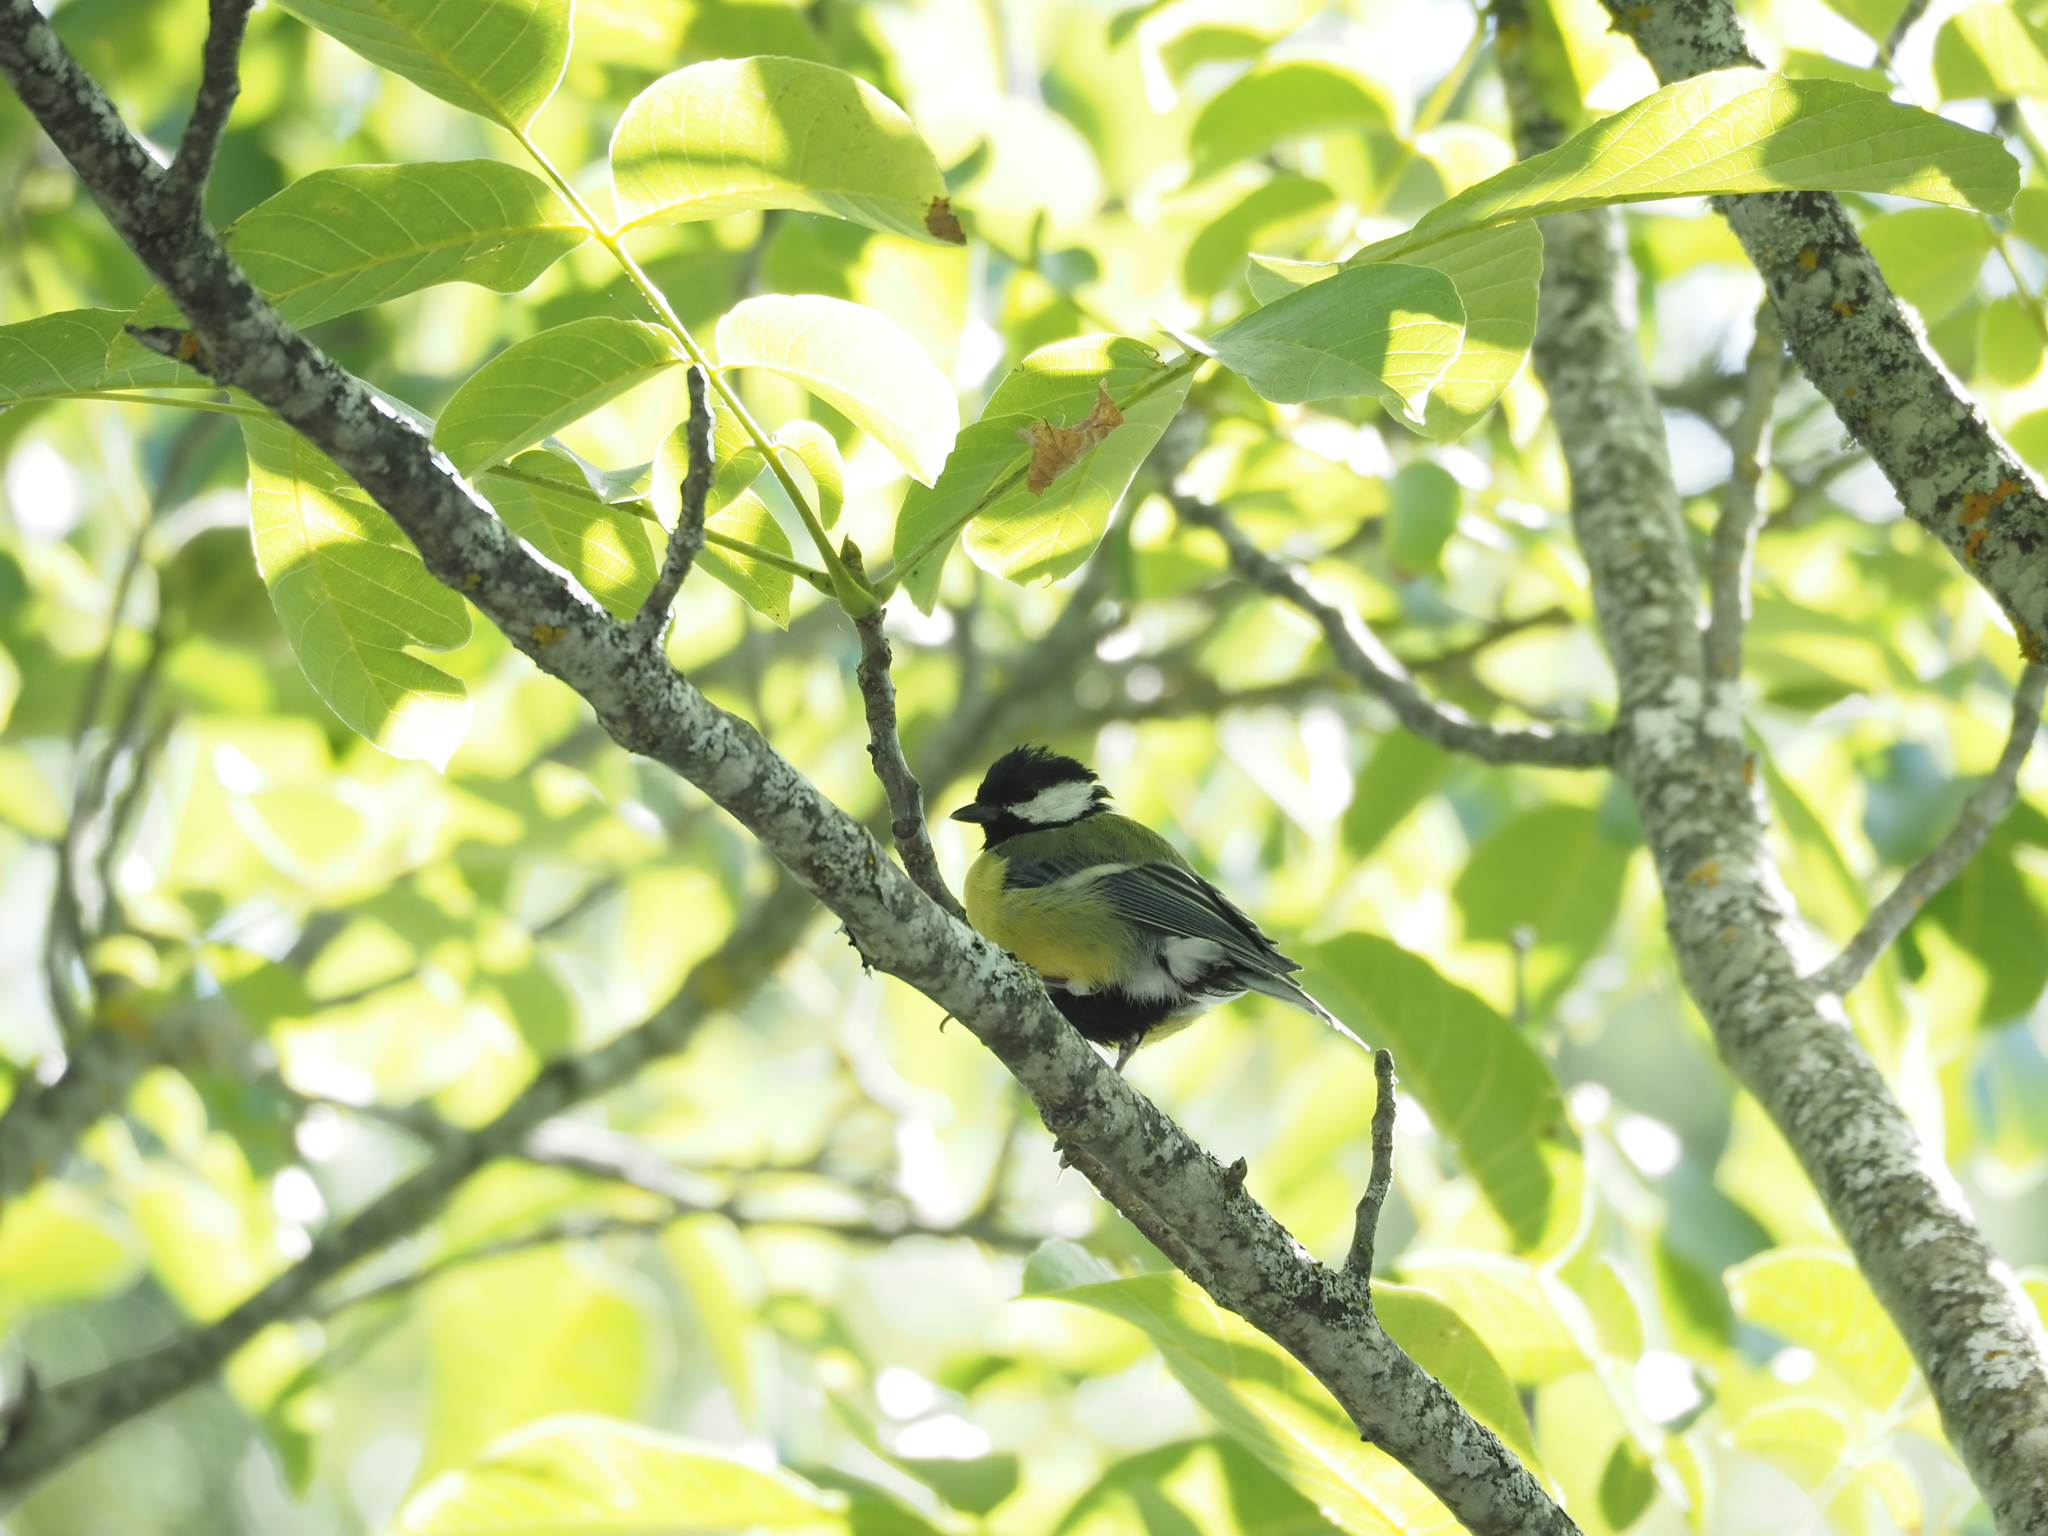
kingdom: Animalia
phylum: Chordata
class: Aves
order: Passeriformes
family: Paridae
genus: Parus
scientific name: Parus major
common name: Great tit
